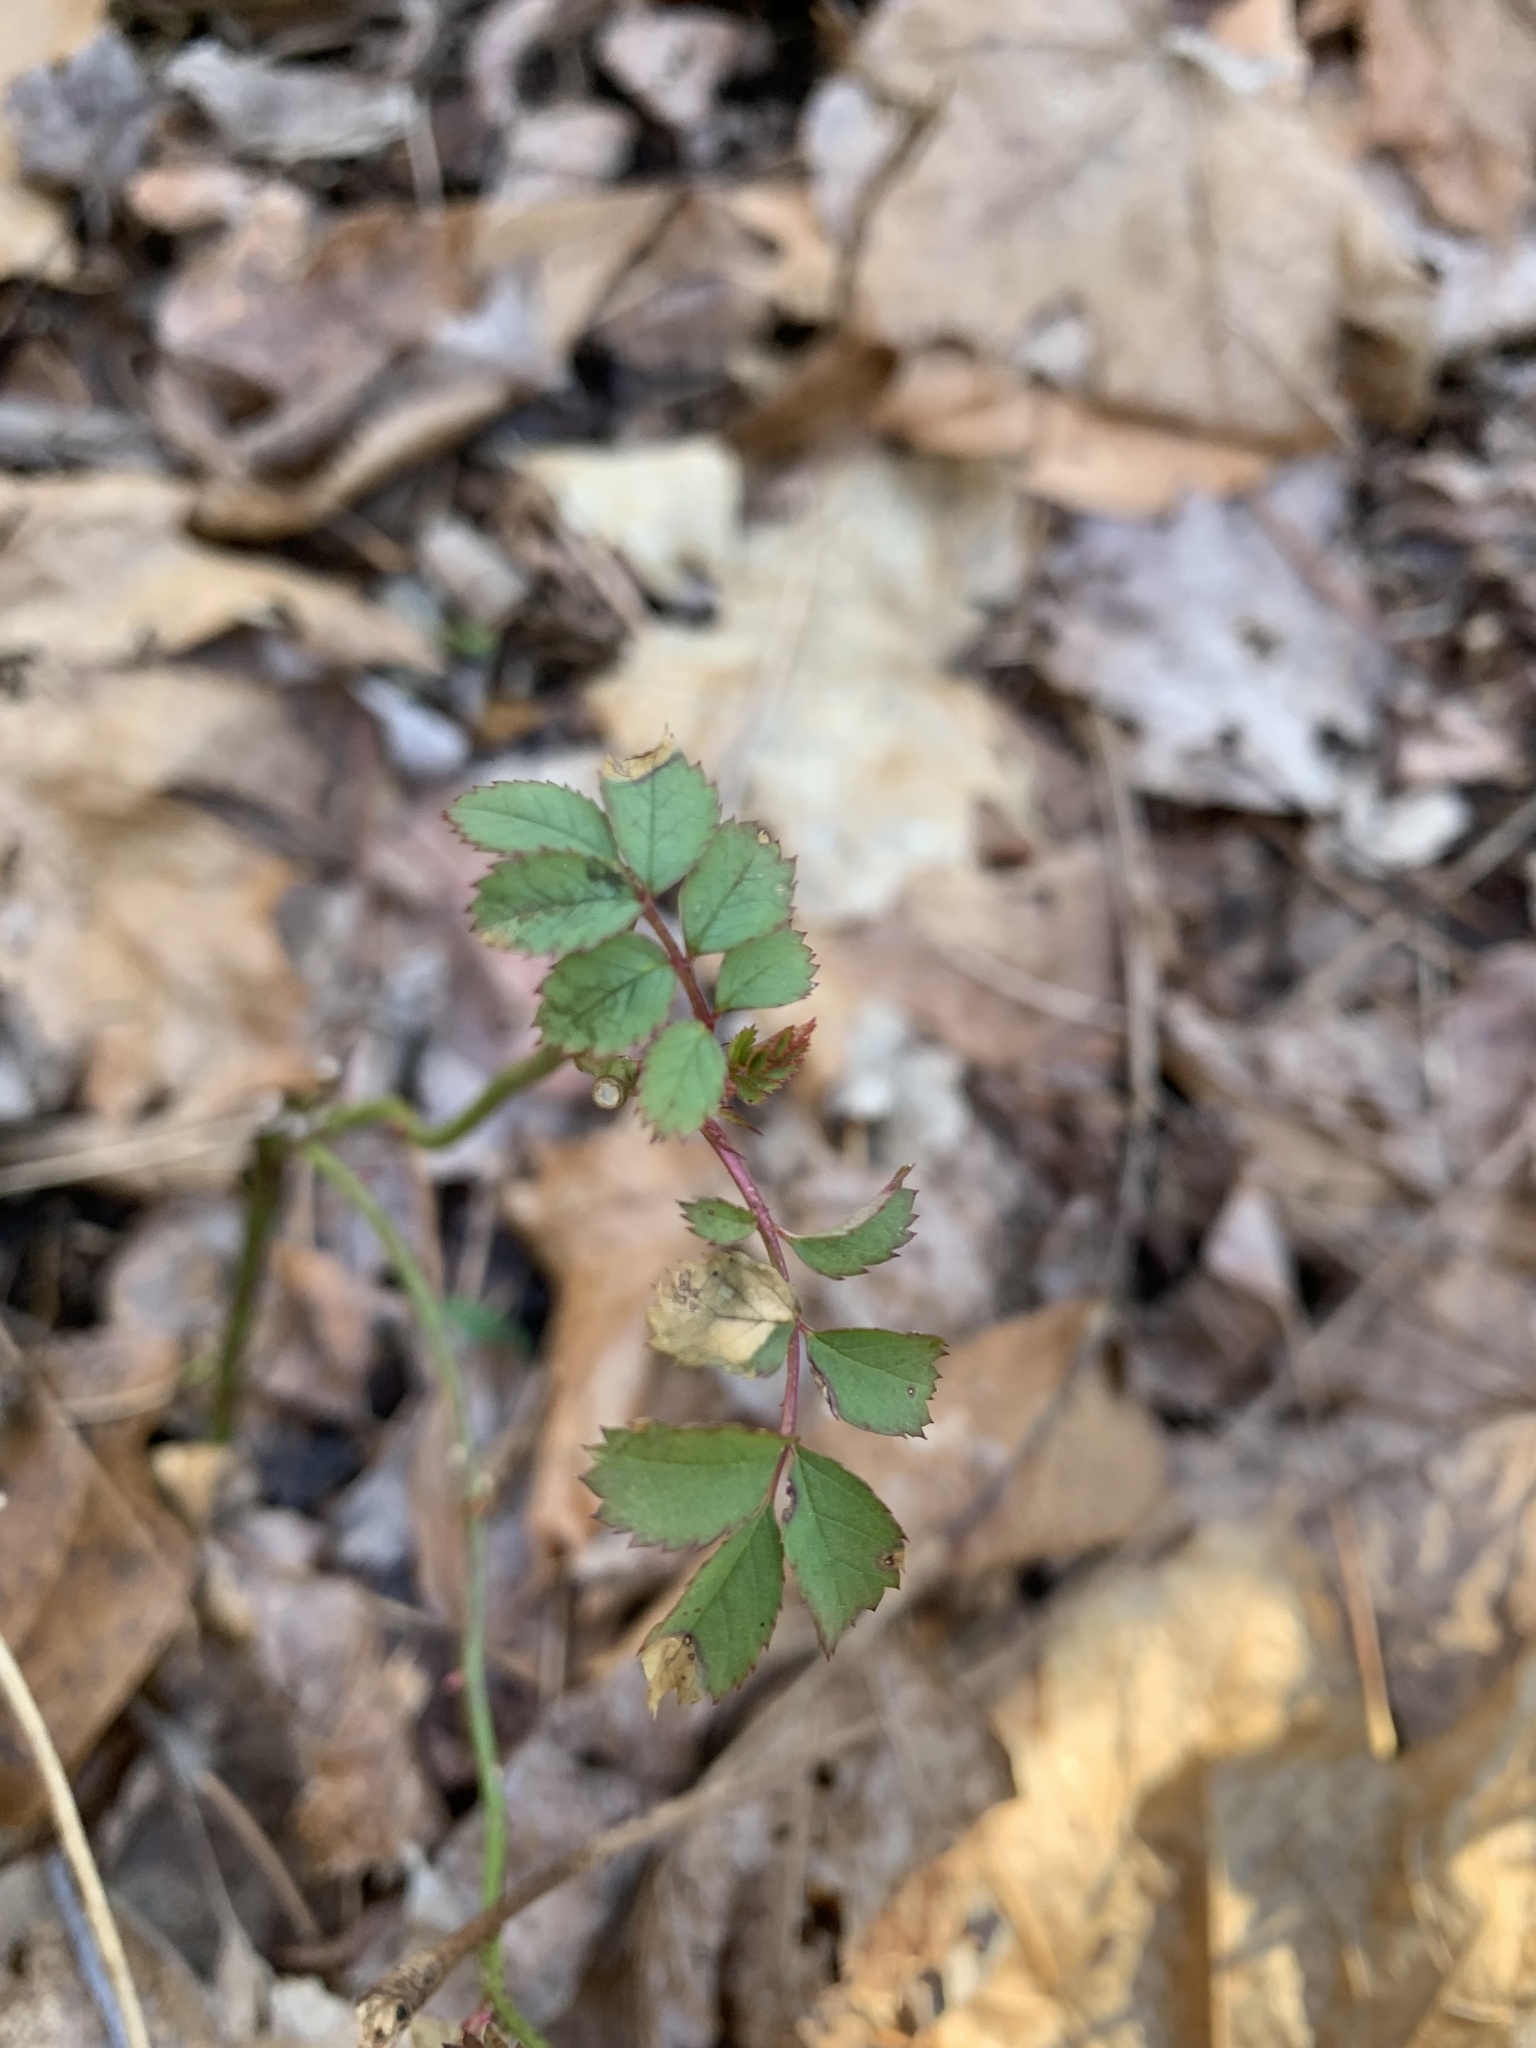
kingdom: Plantae
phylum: Tracheophyta
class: Magnoliopsida
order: Rosales
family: Rosaceae
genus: Rosa
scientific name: Rosa multiflora
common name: Multiflora rose
